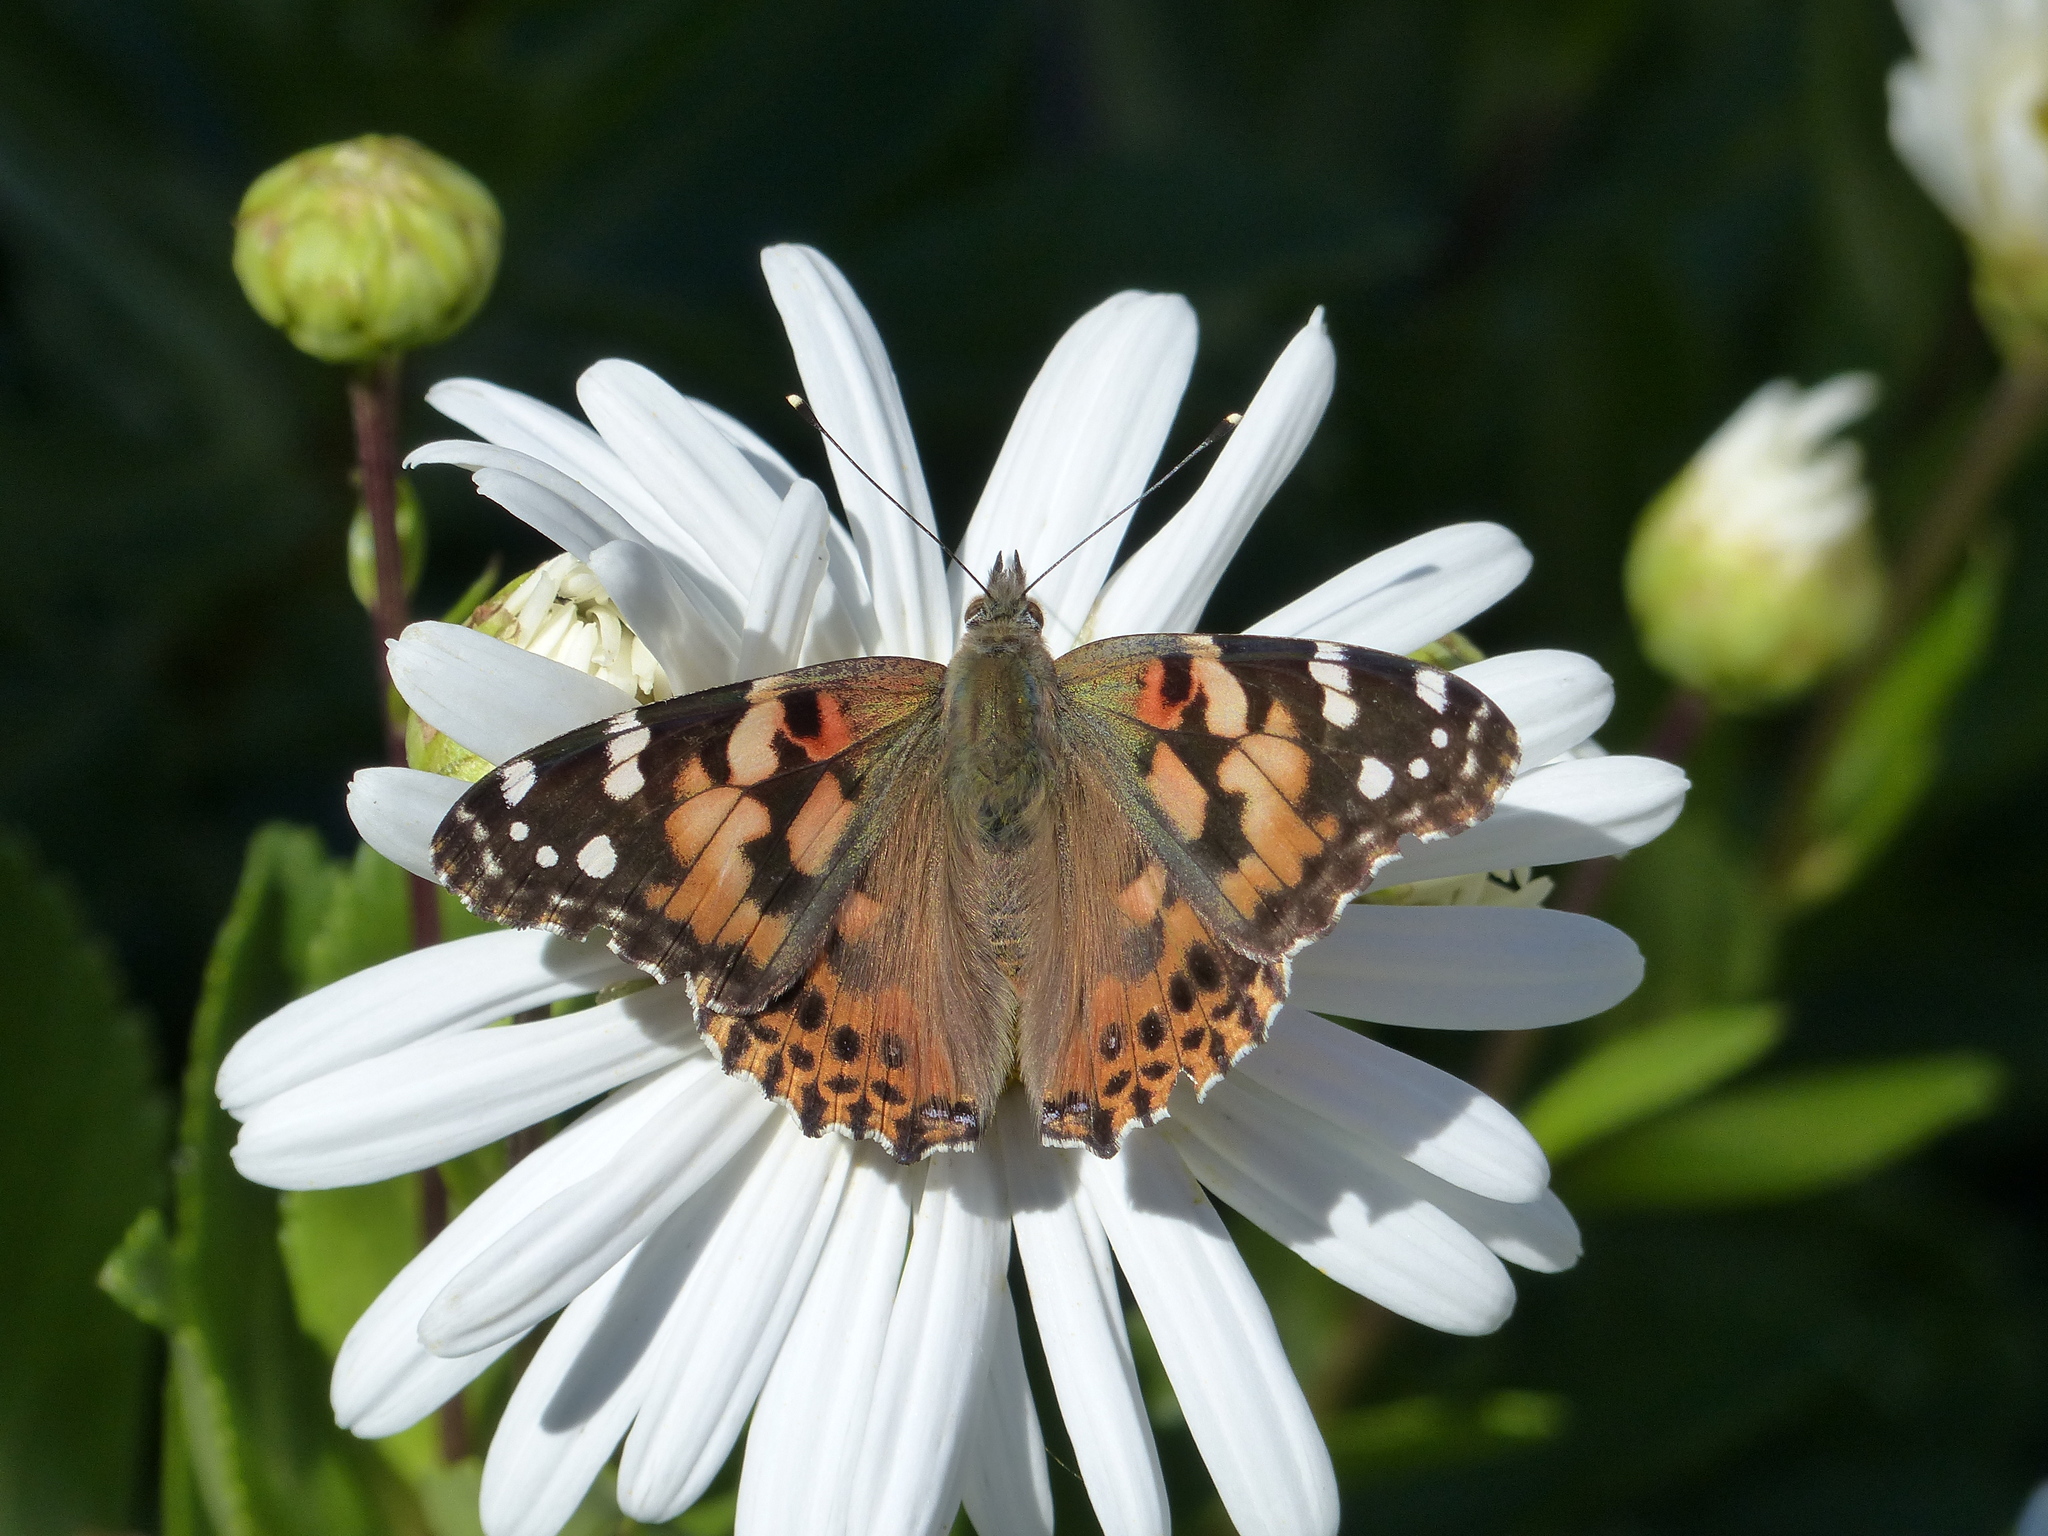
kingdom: Animalia
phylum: Arthropoda
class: Insecta
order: Lepidoptera
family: Nymphalidae
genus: Vanessa
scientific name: Vanessa cardui
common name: Painted lady
